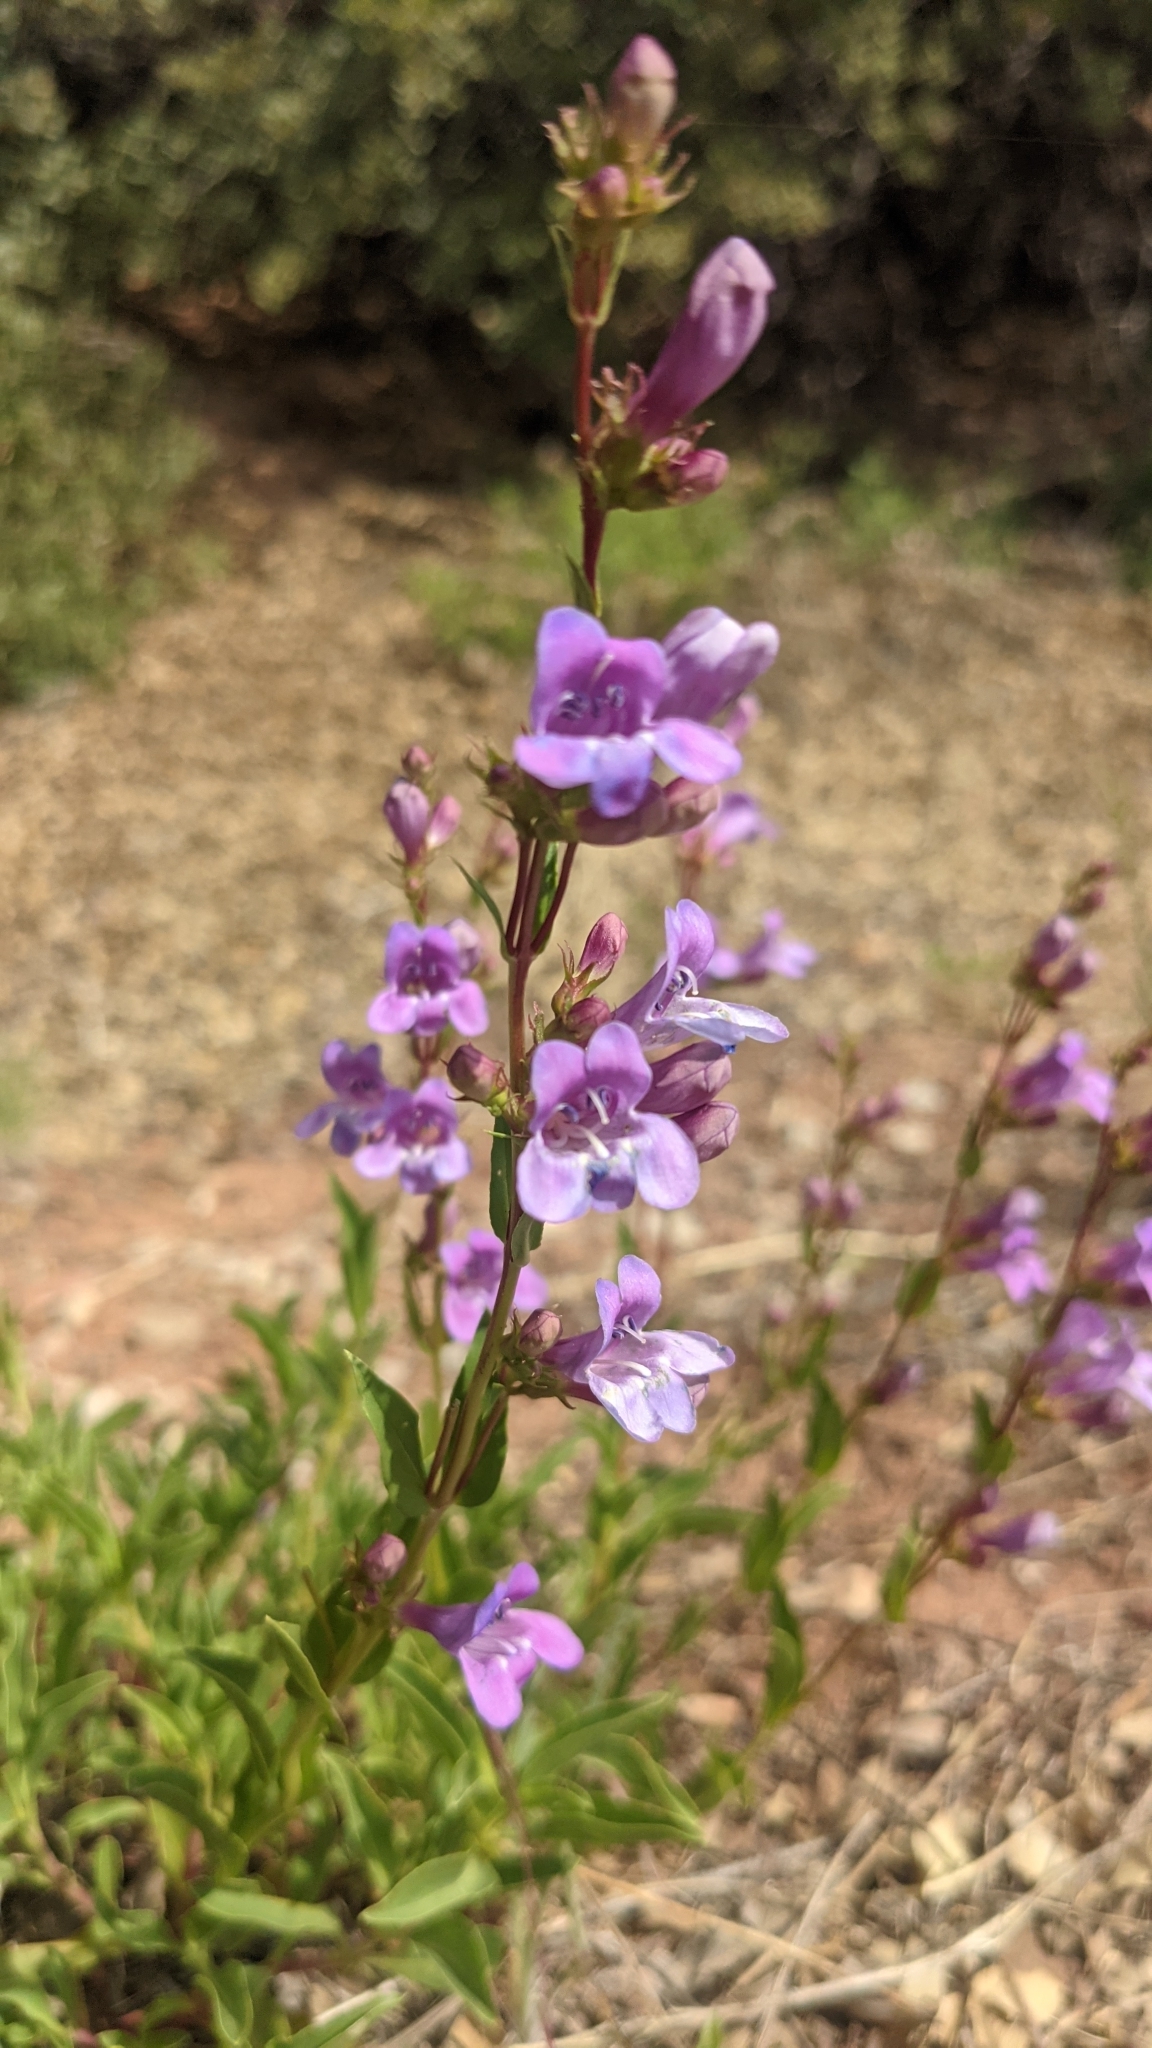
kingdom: Plantae
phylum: Tracheophyta
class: Magnoliopsida
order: Lamiales
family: Plantaginaceae
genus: Penstemon
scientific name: Penstemon leonardii
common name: Leonard's penstemon
